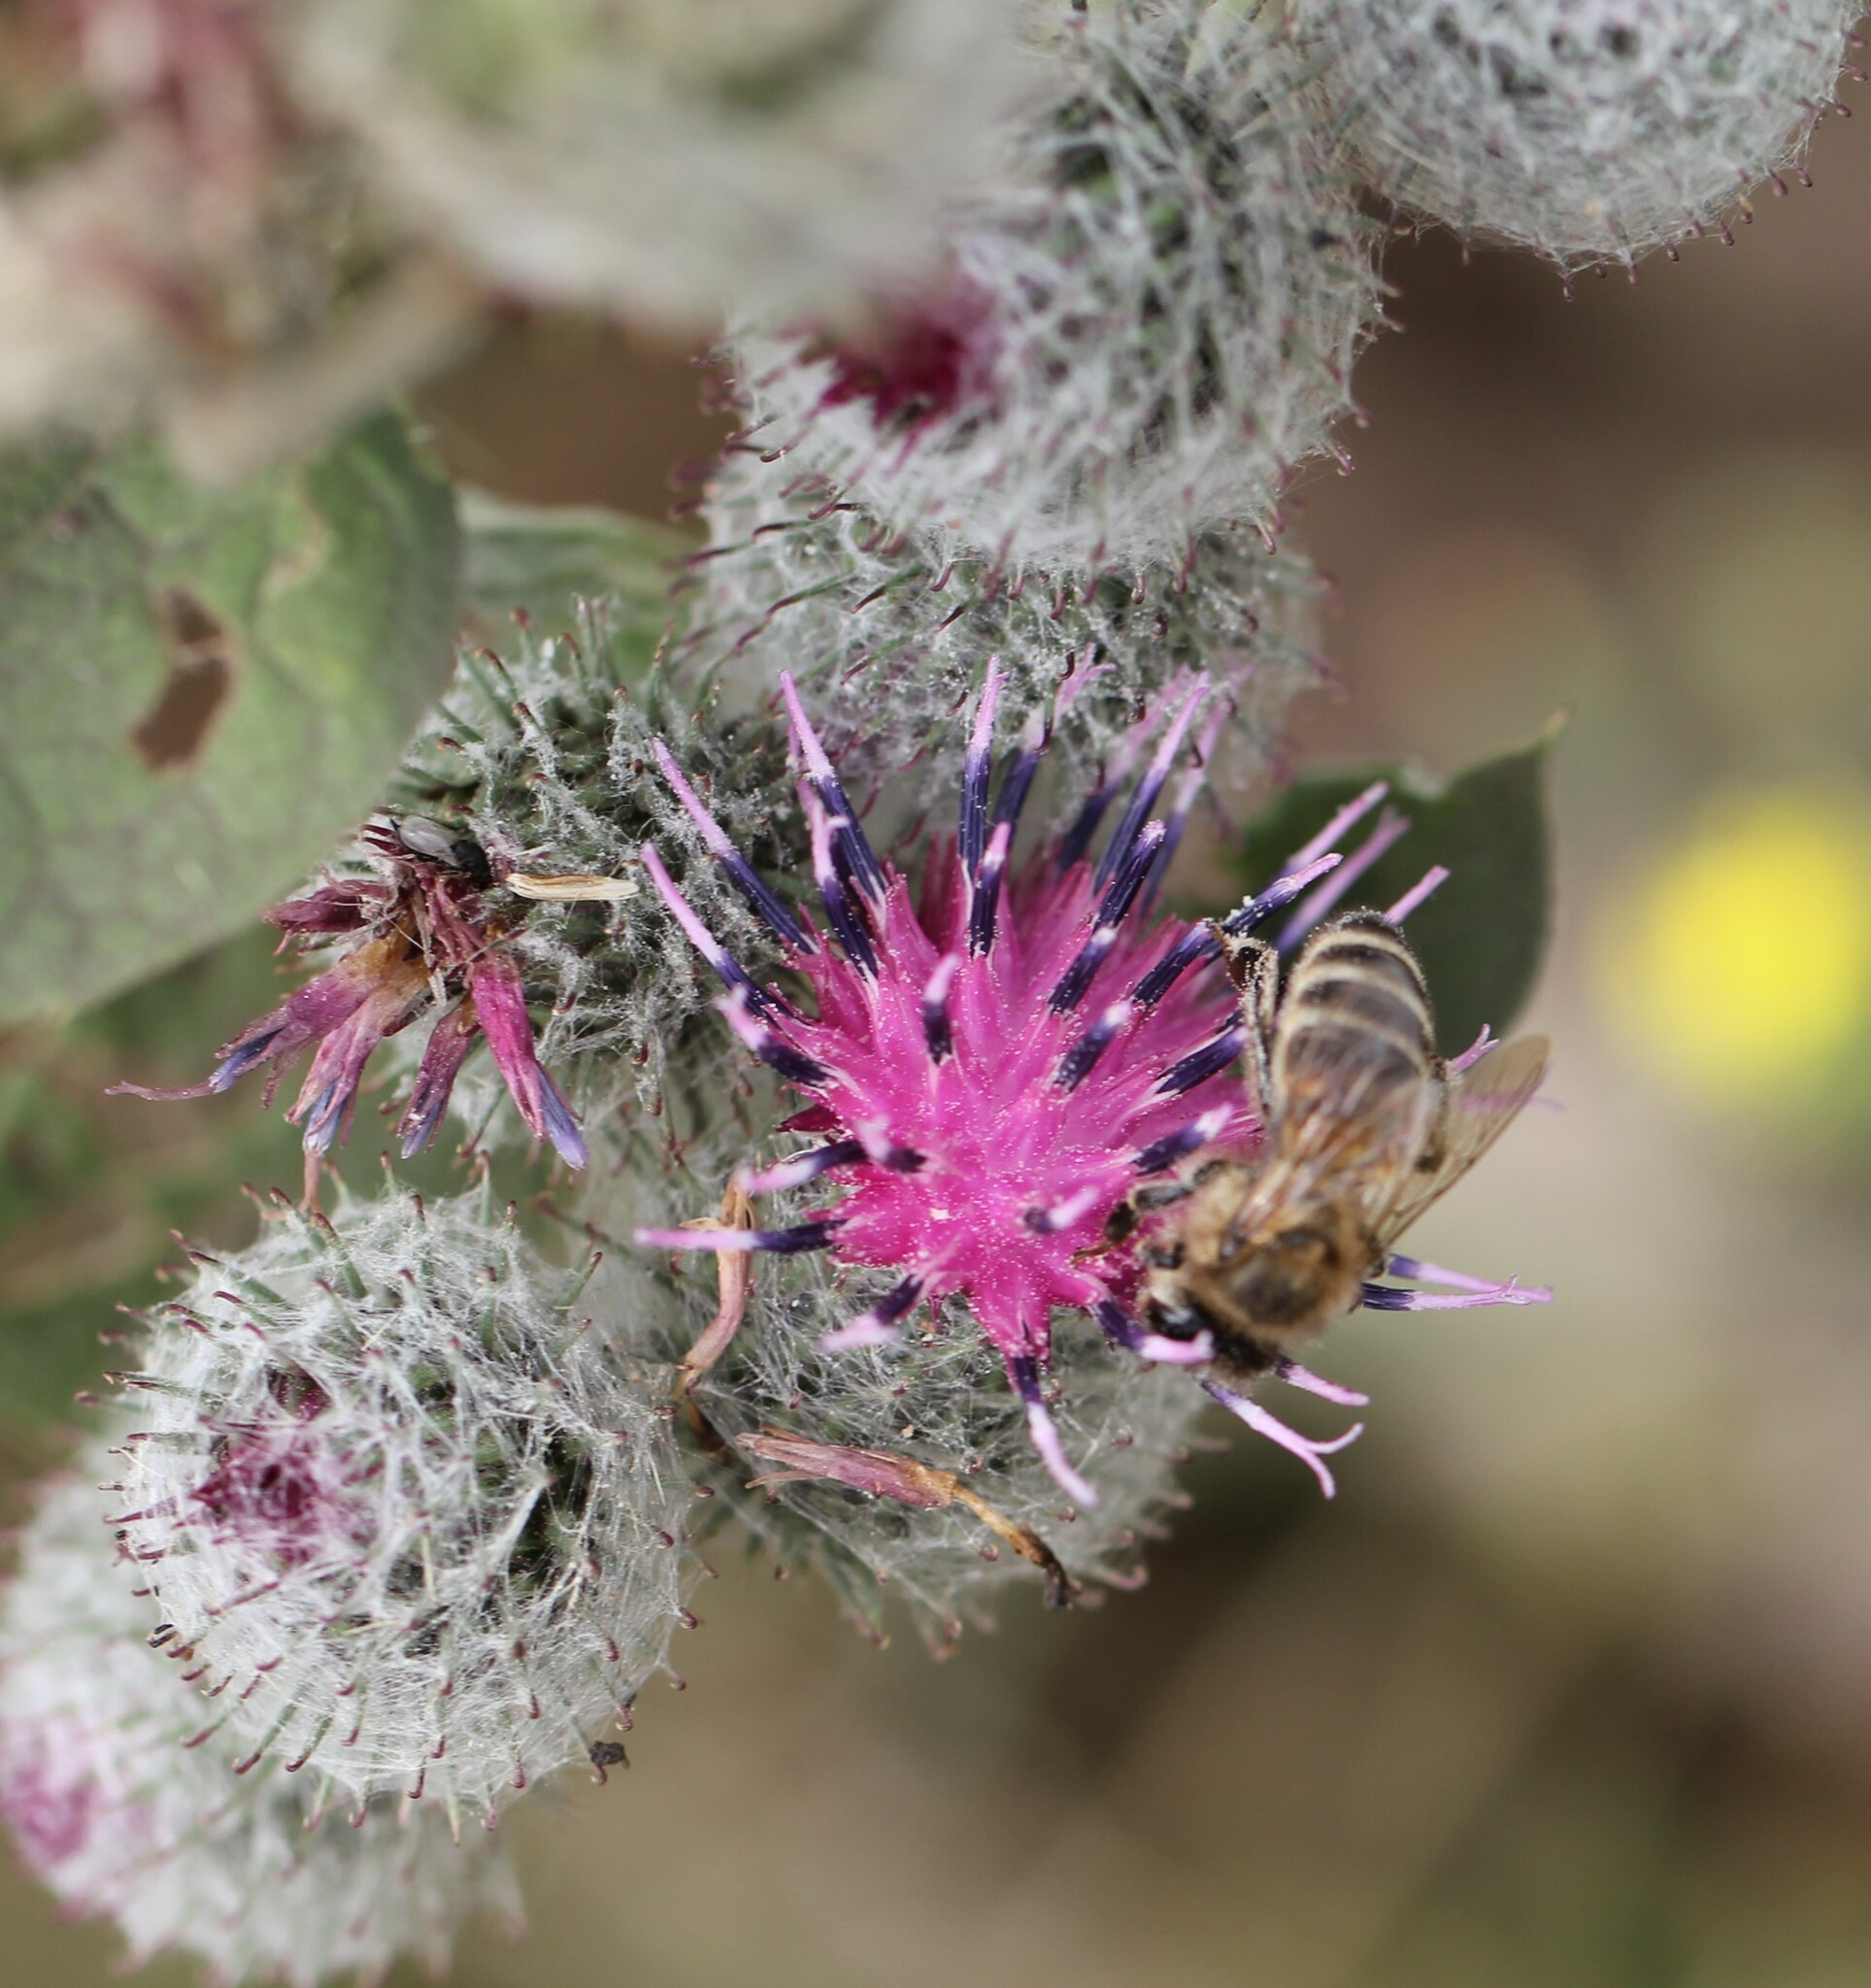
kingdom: Animalia
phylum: Arthropoda
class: Insecta
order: Hymenoptera
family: Apidae
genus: Apis
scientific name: Apis mellifera
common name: Honey bee
